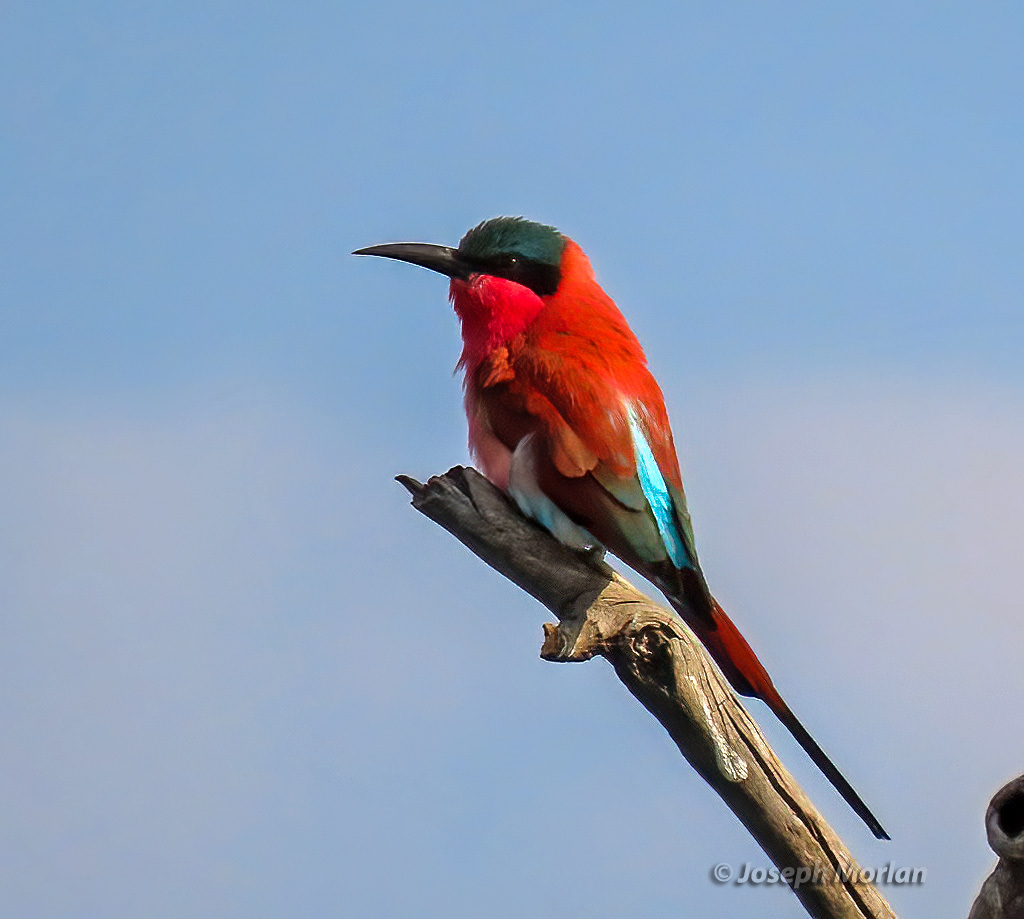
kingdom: Animalia
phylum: Chordata
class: Aves
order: Coraciiformes
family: Meropidae
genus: Merops
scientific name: Merops nubicoides
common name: Southern carmine bee-eater
